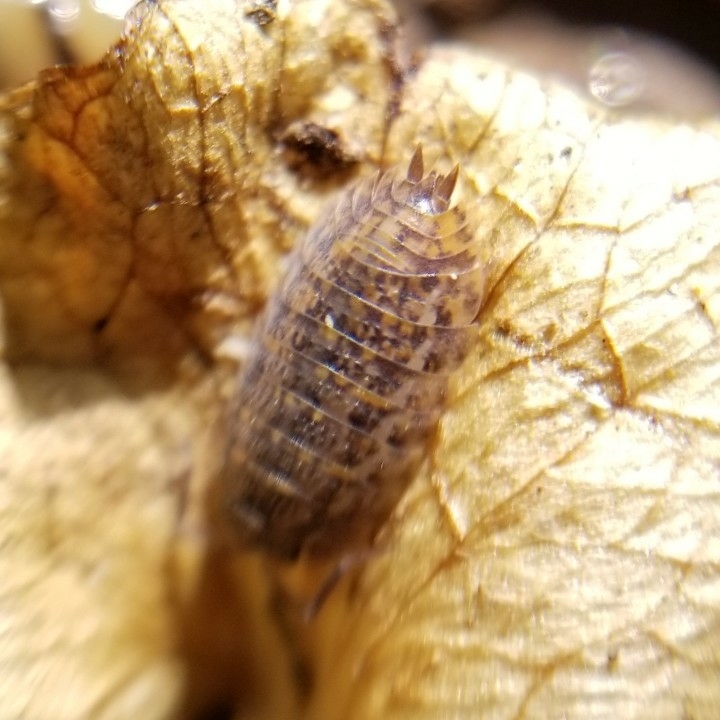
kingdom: Animalia
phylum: Arthropoda
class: Malacostraca
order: Isopoda
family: Trachelipodidae
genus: Trachelipus
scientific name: Trachelipus rathkii
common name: Isopod
